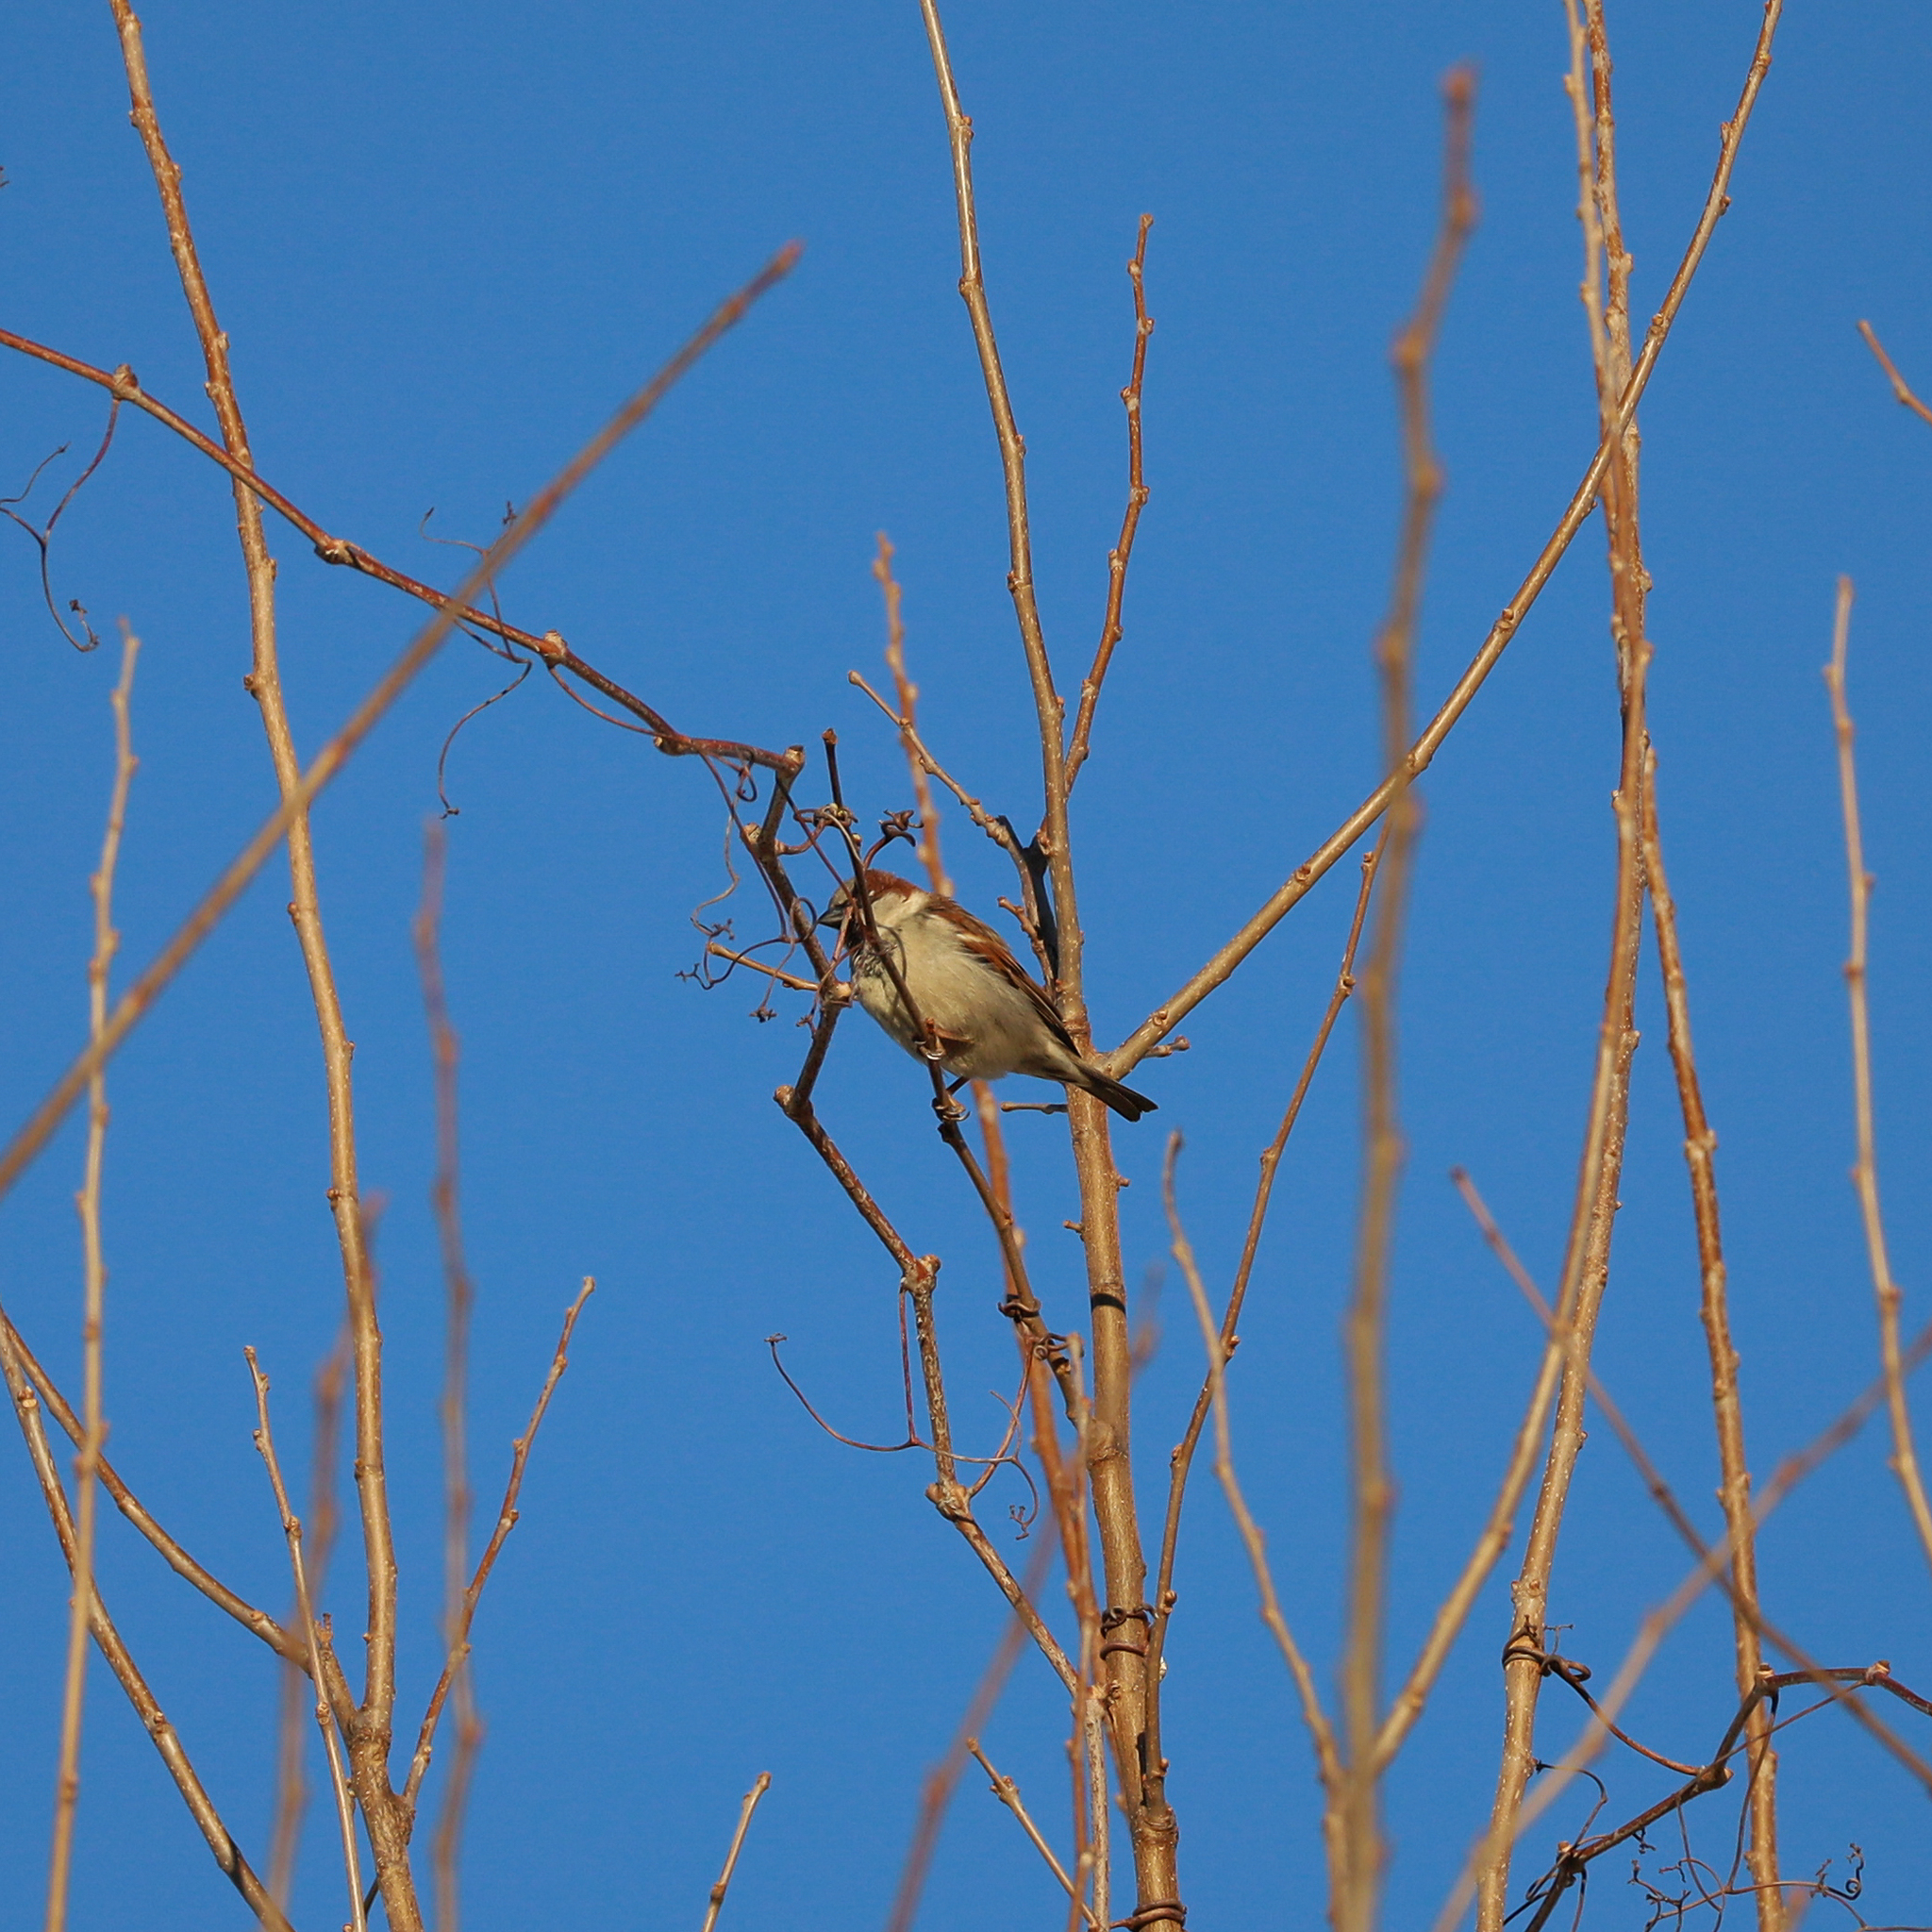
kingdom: Animalia
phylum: Chordata
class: Aves
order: Passeriformes
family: Passeridae
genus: Passer
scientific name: Passer domesticus
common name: House sparrow
